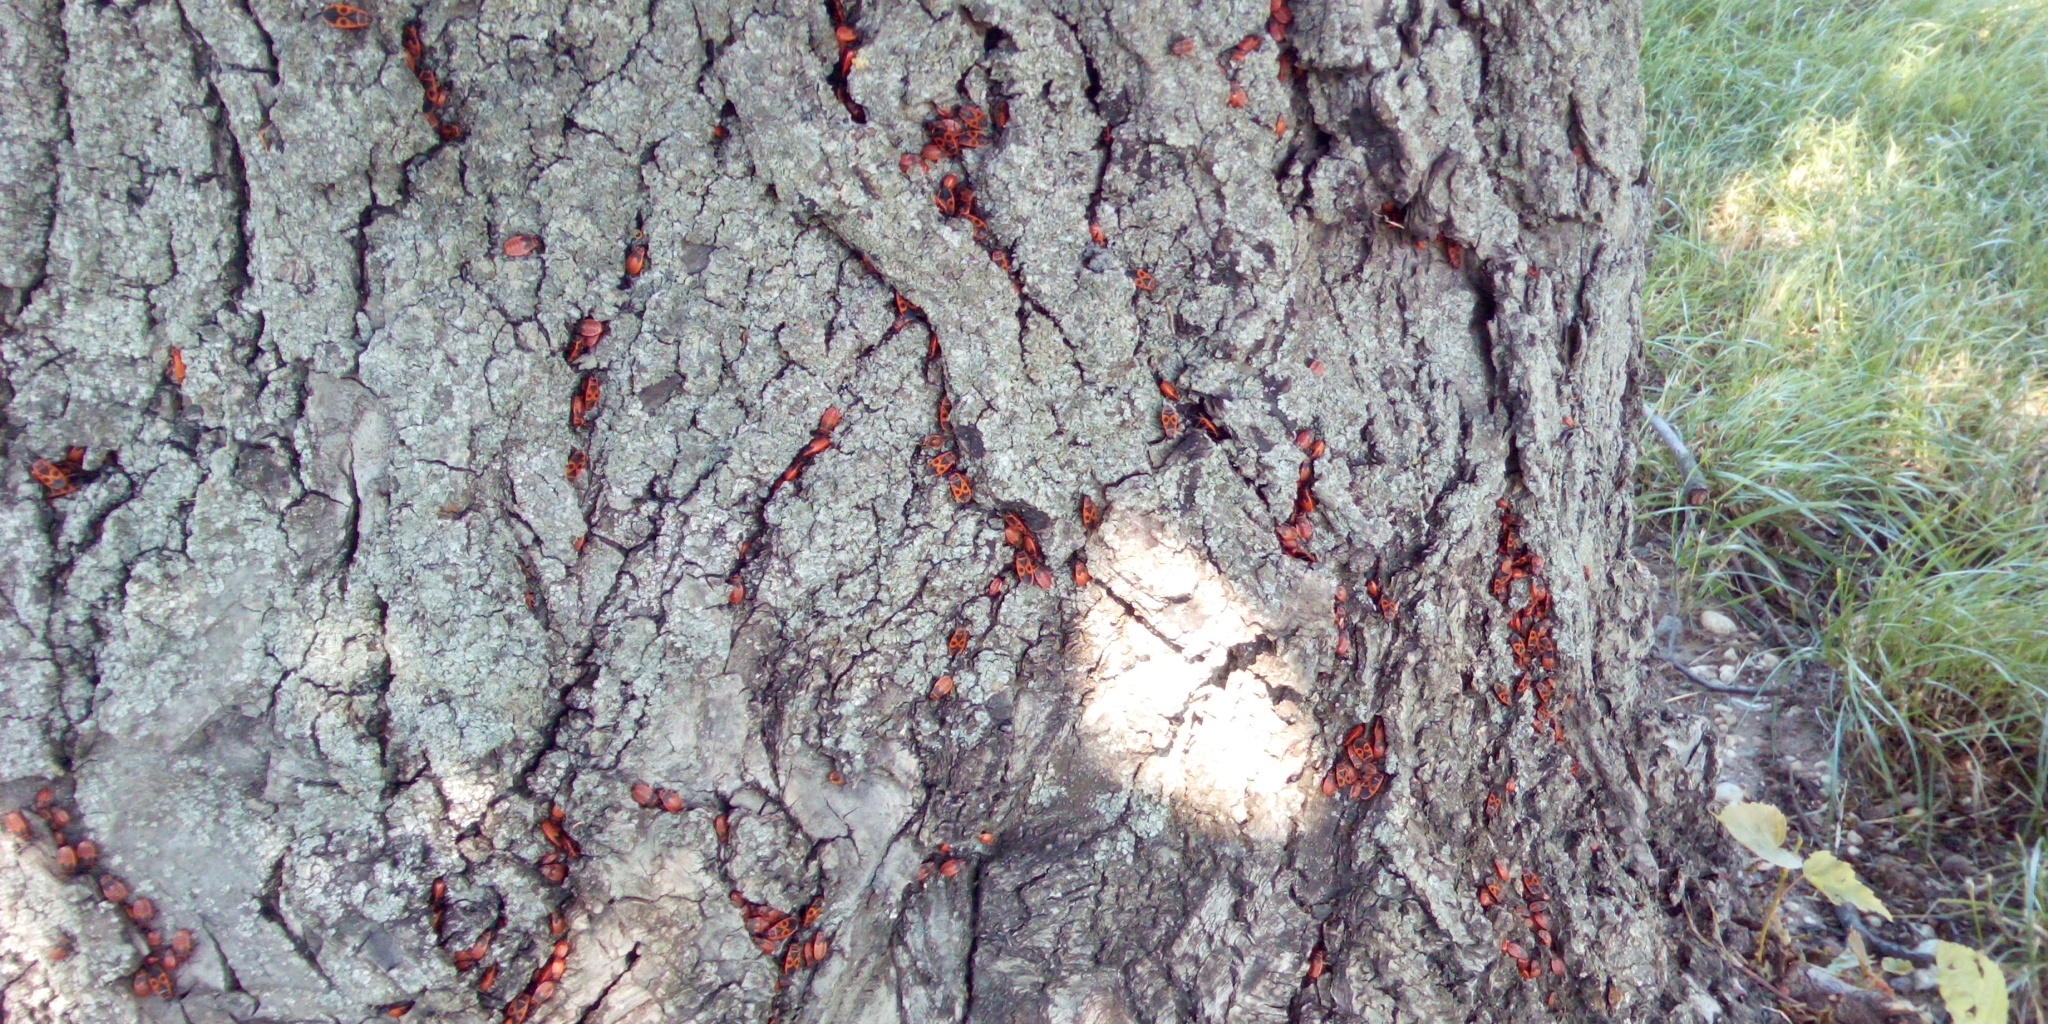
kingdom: Animalia
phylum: Arthropoda
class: Insecta
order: Hemiptera
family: Pyrrhocoridae
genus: Pyrrhocoris
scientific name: Pyrrhocoris apterus
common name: Firebug
